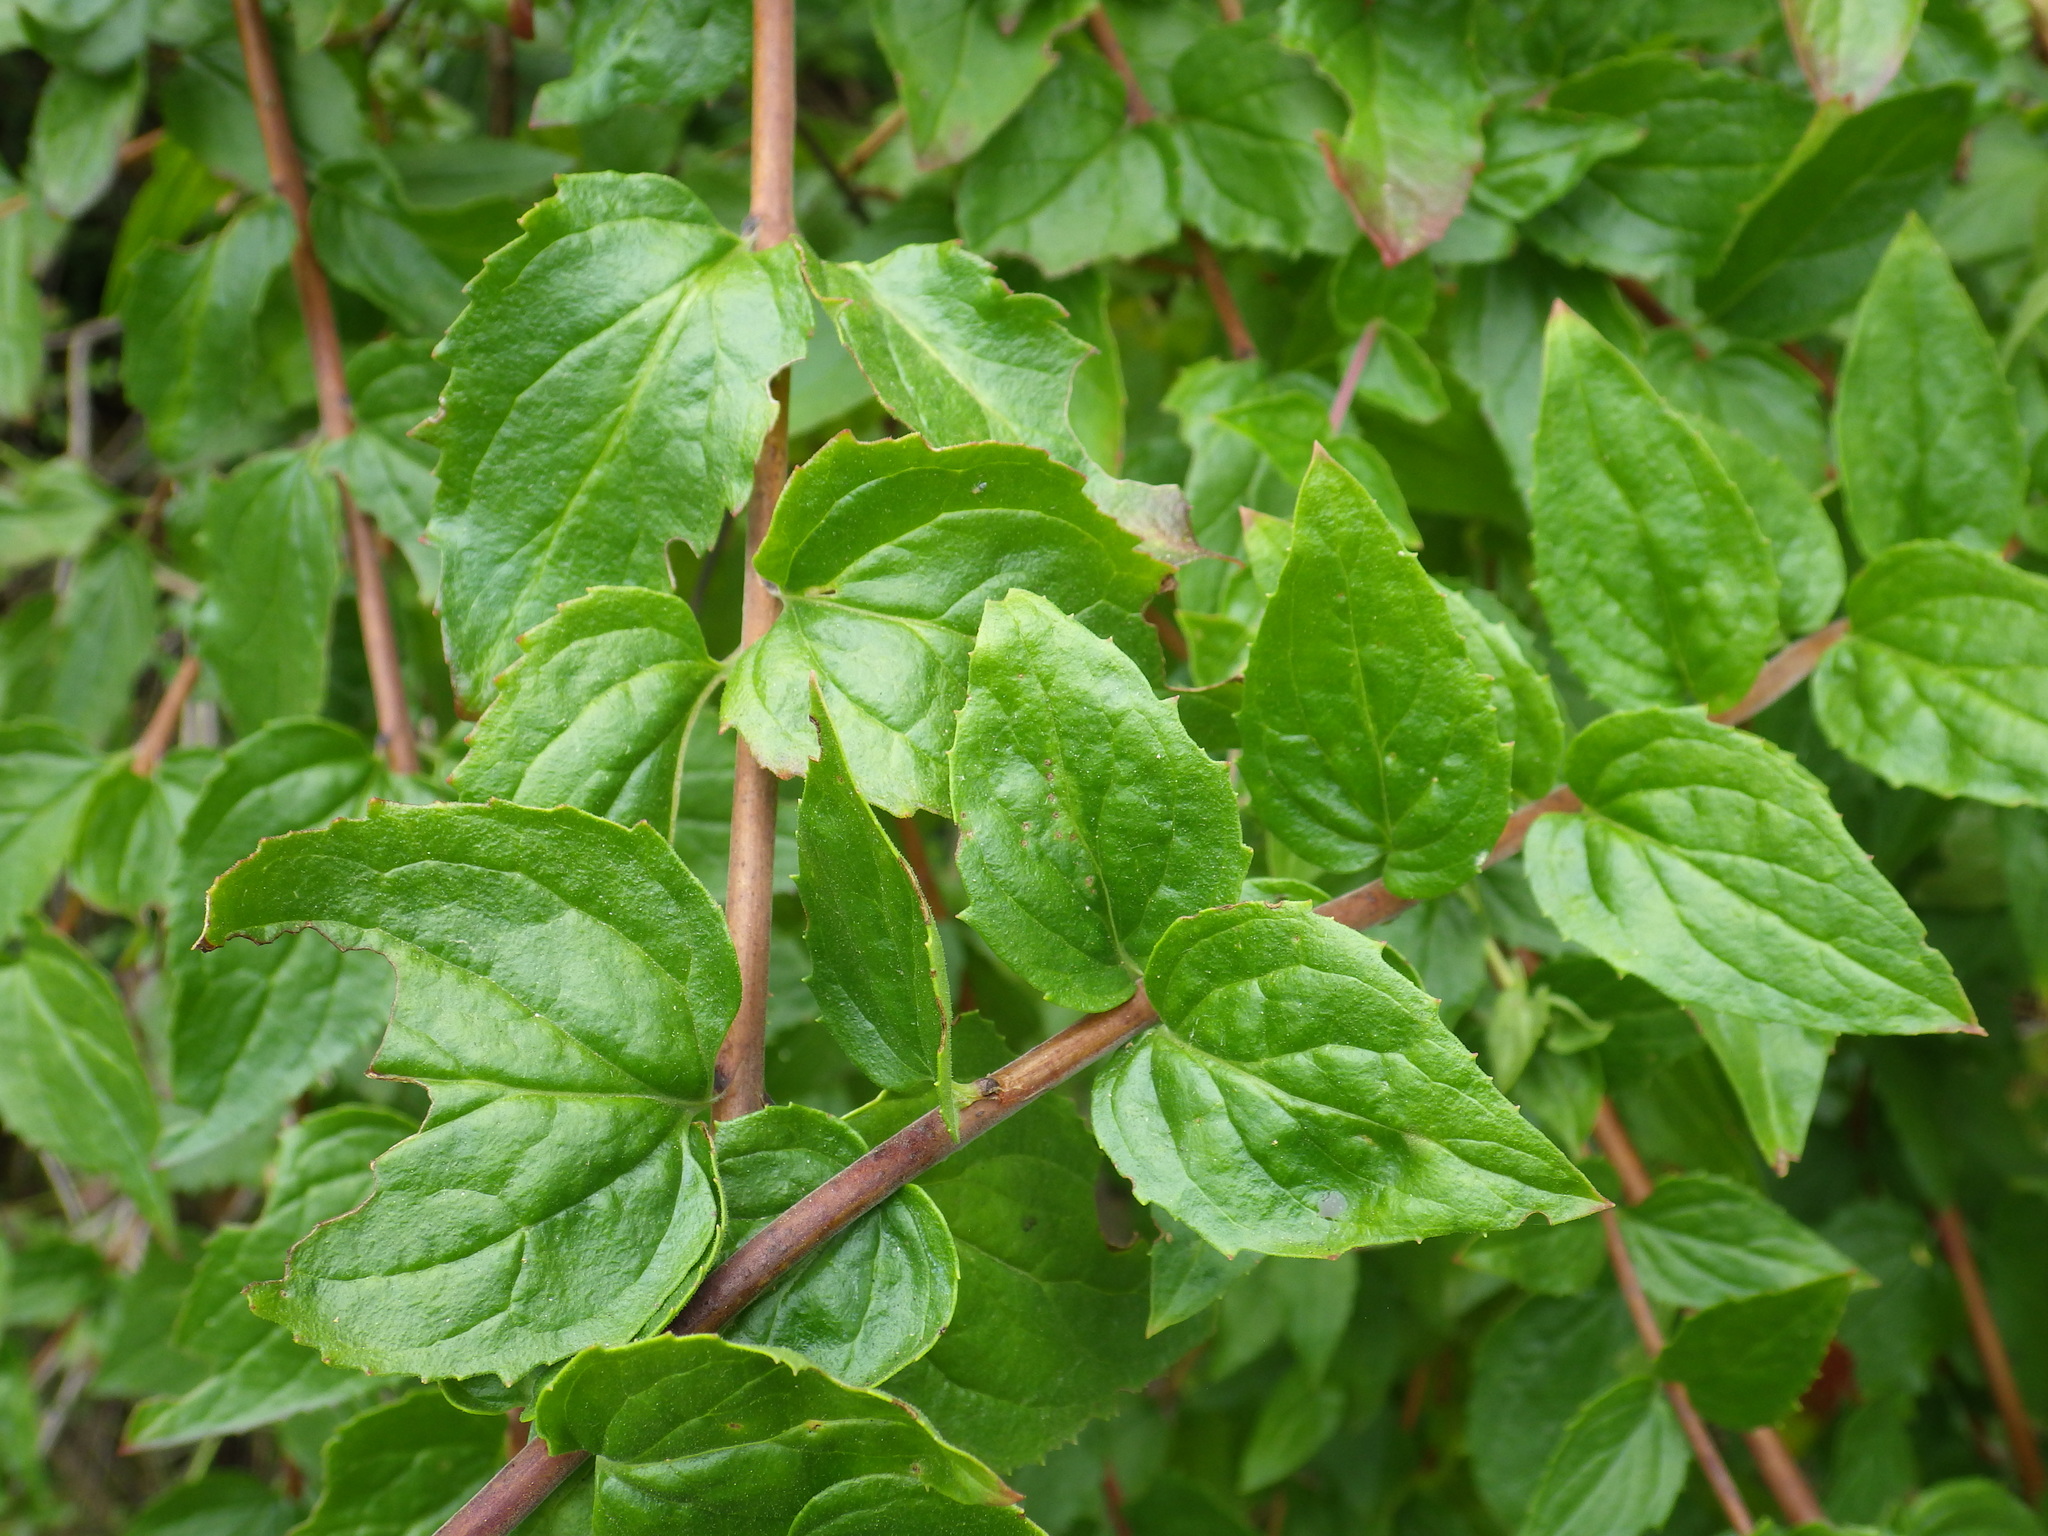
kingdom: Plantae
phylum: Tracheophyta
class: Magnoliopsida
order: Lamiales
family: Plantaginaceae
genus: Keckiella
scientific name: Keckiella cordifolia
